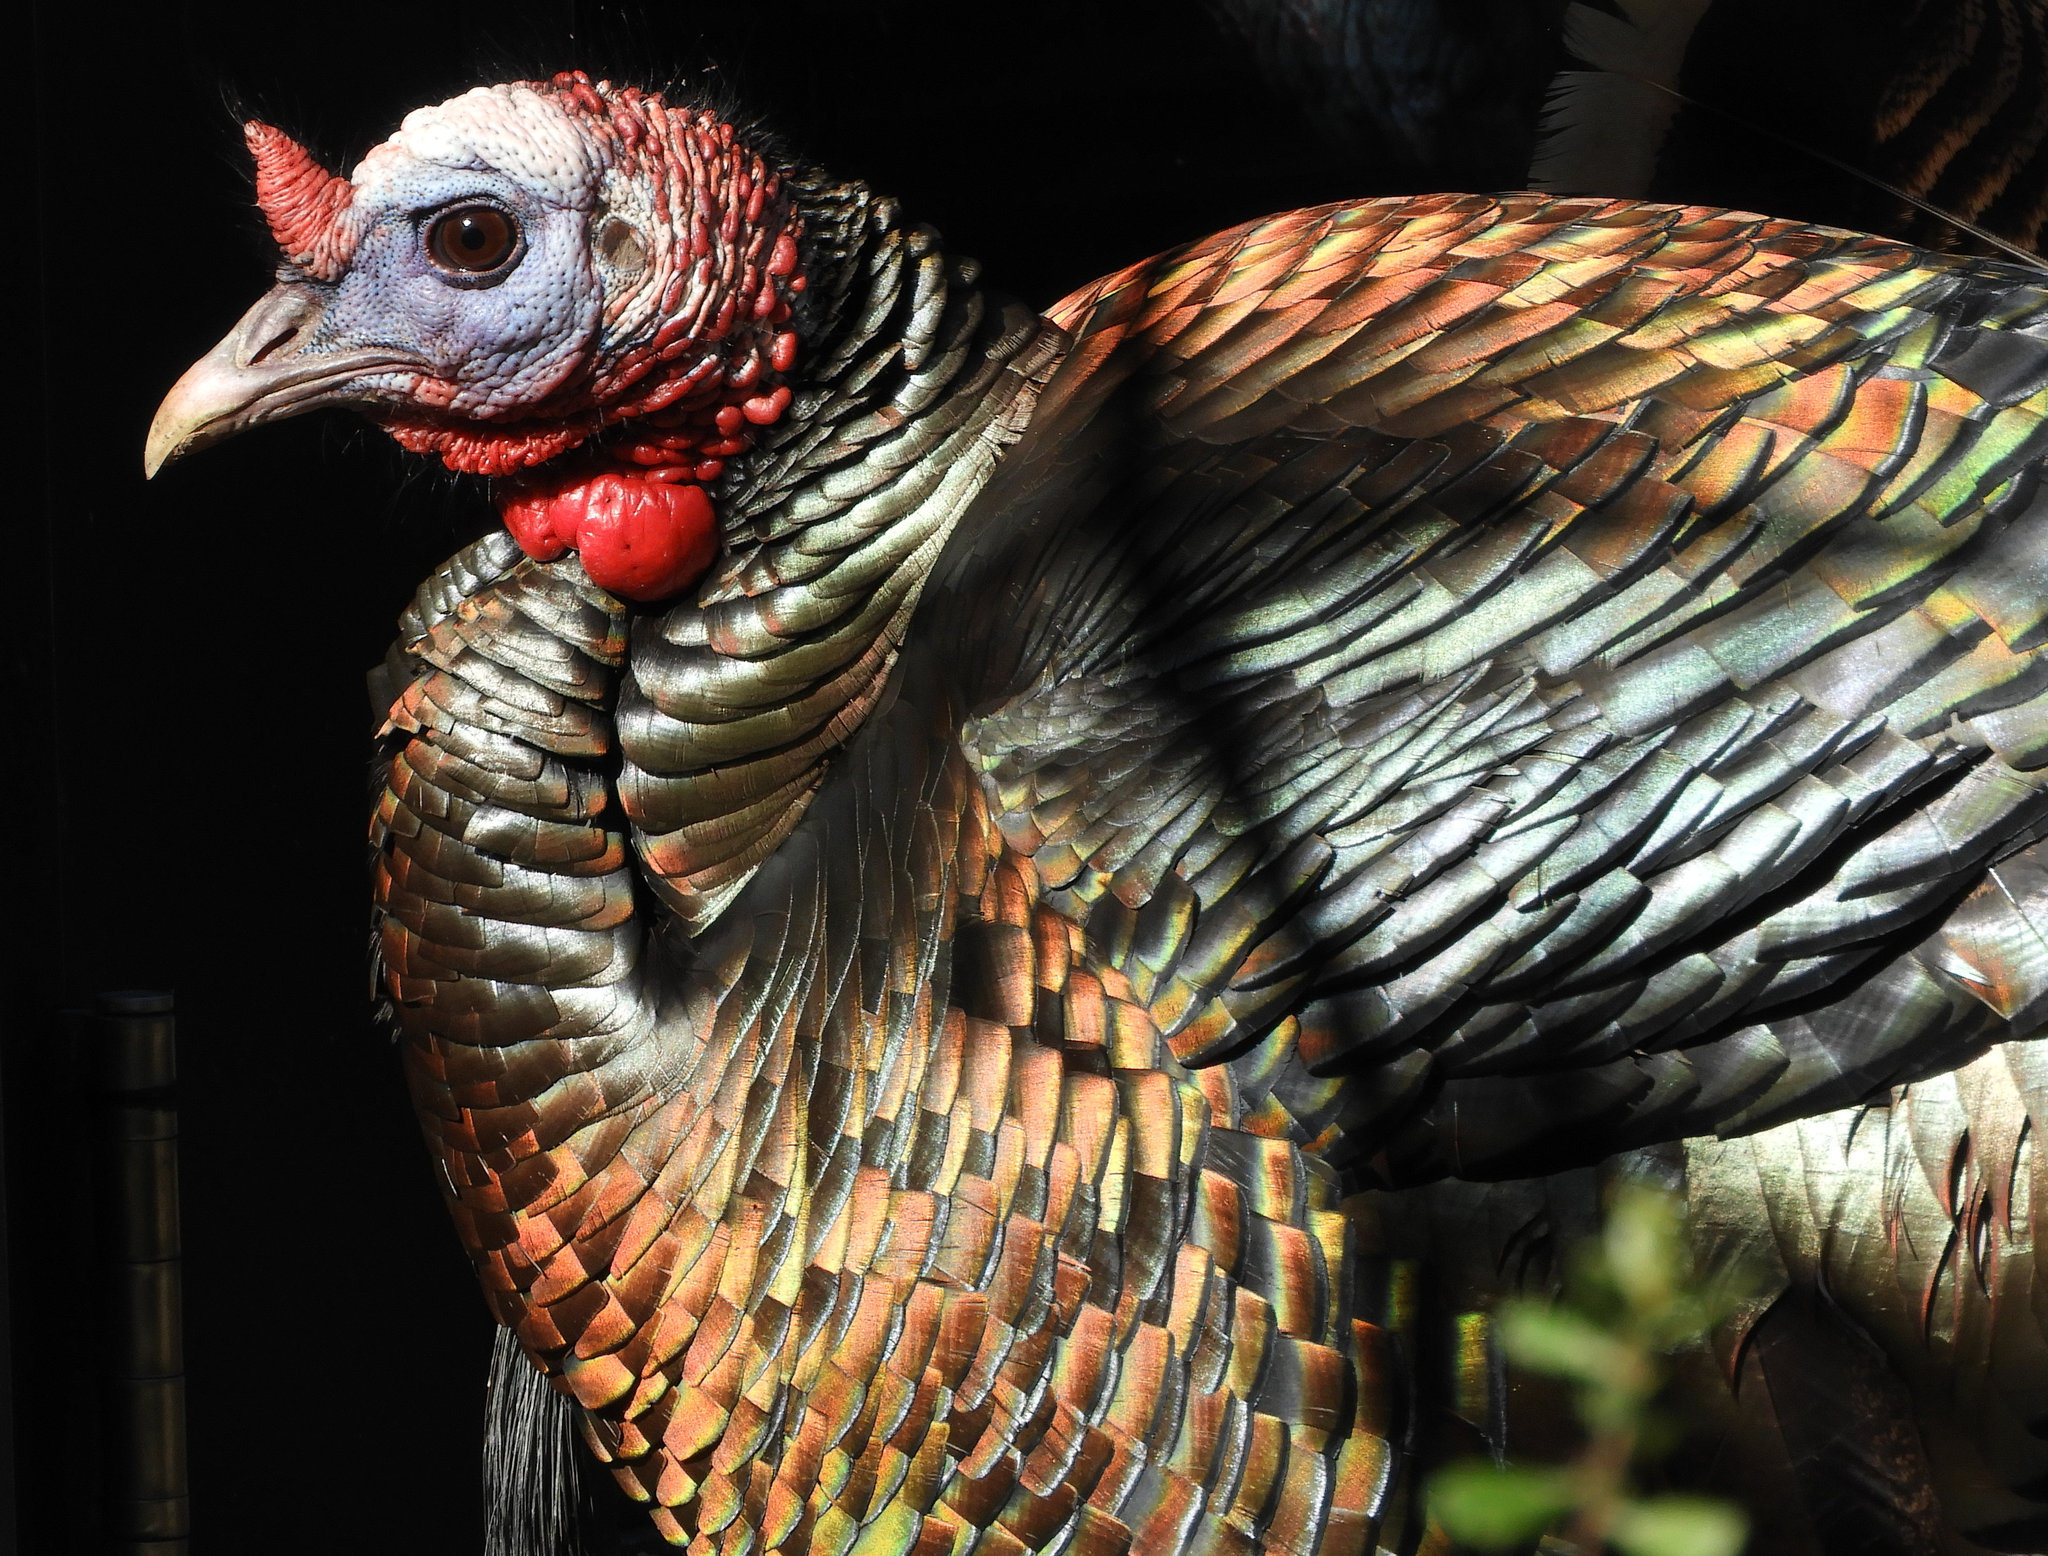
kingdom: Animalia
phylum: Chordata
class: Aves
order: Galliformes
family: Phasianidae
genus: Meleagris
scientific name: Meleagris gallopavo
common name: Wild turkey
